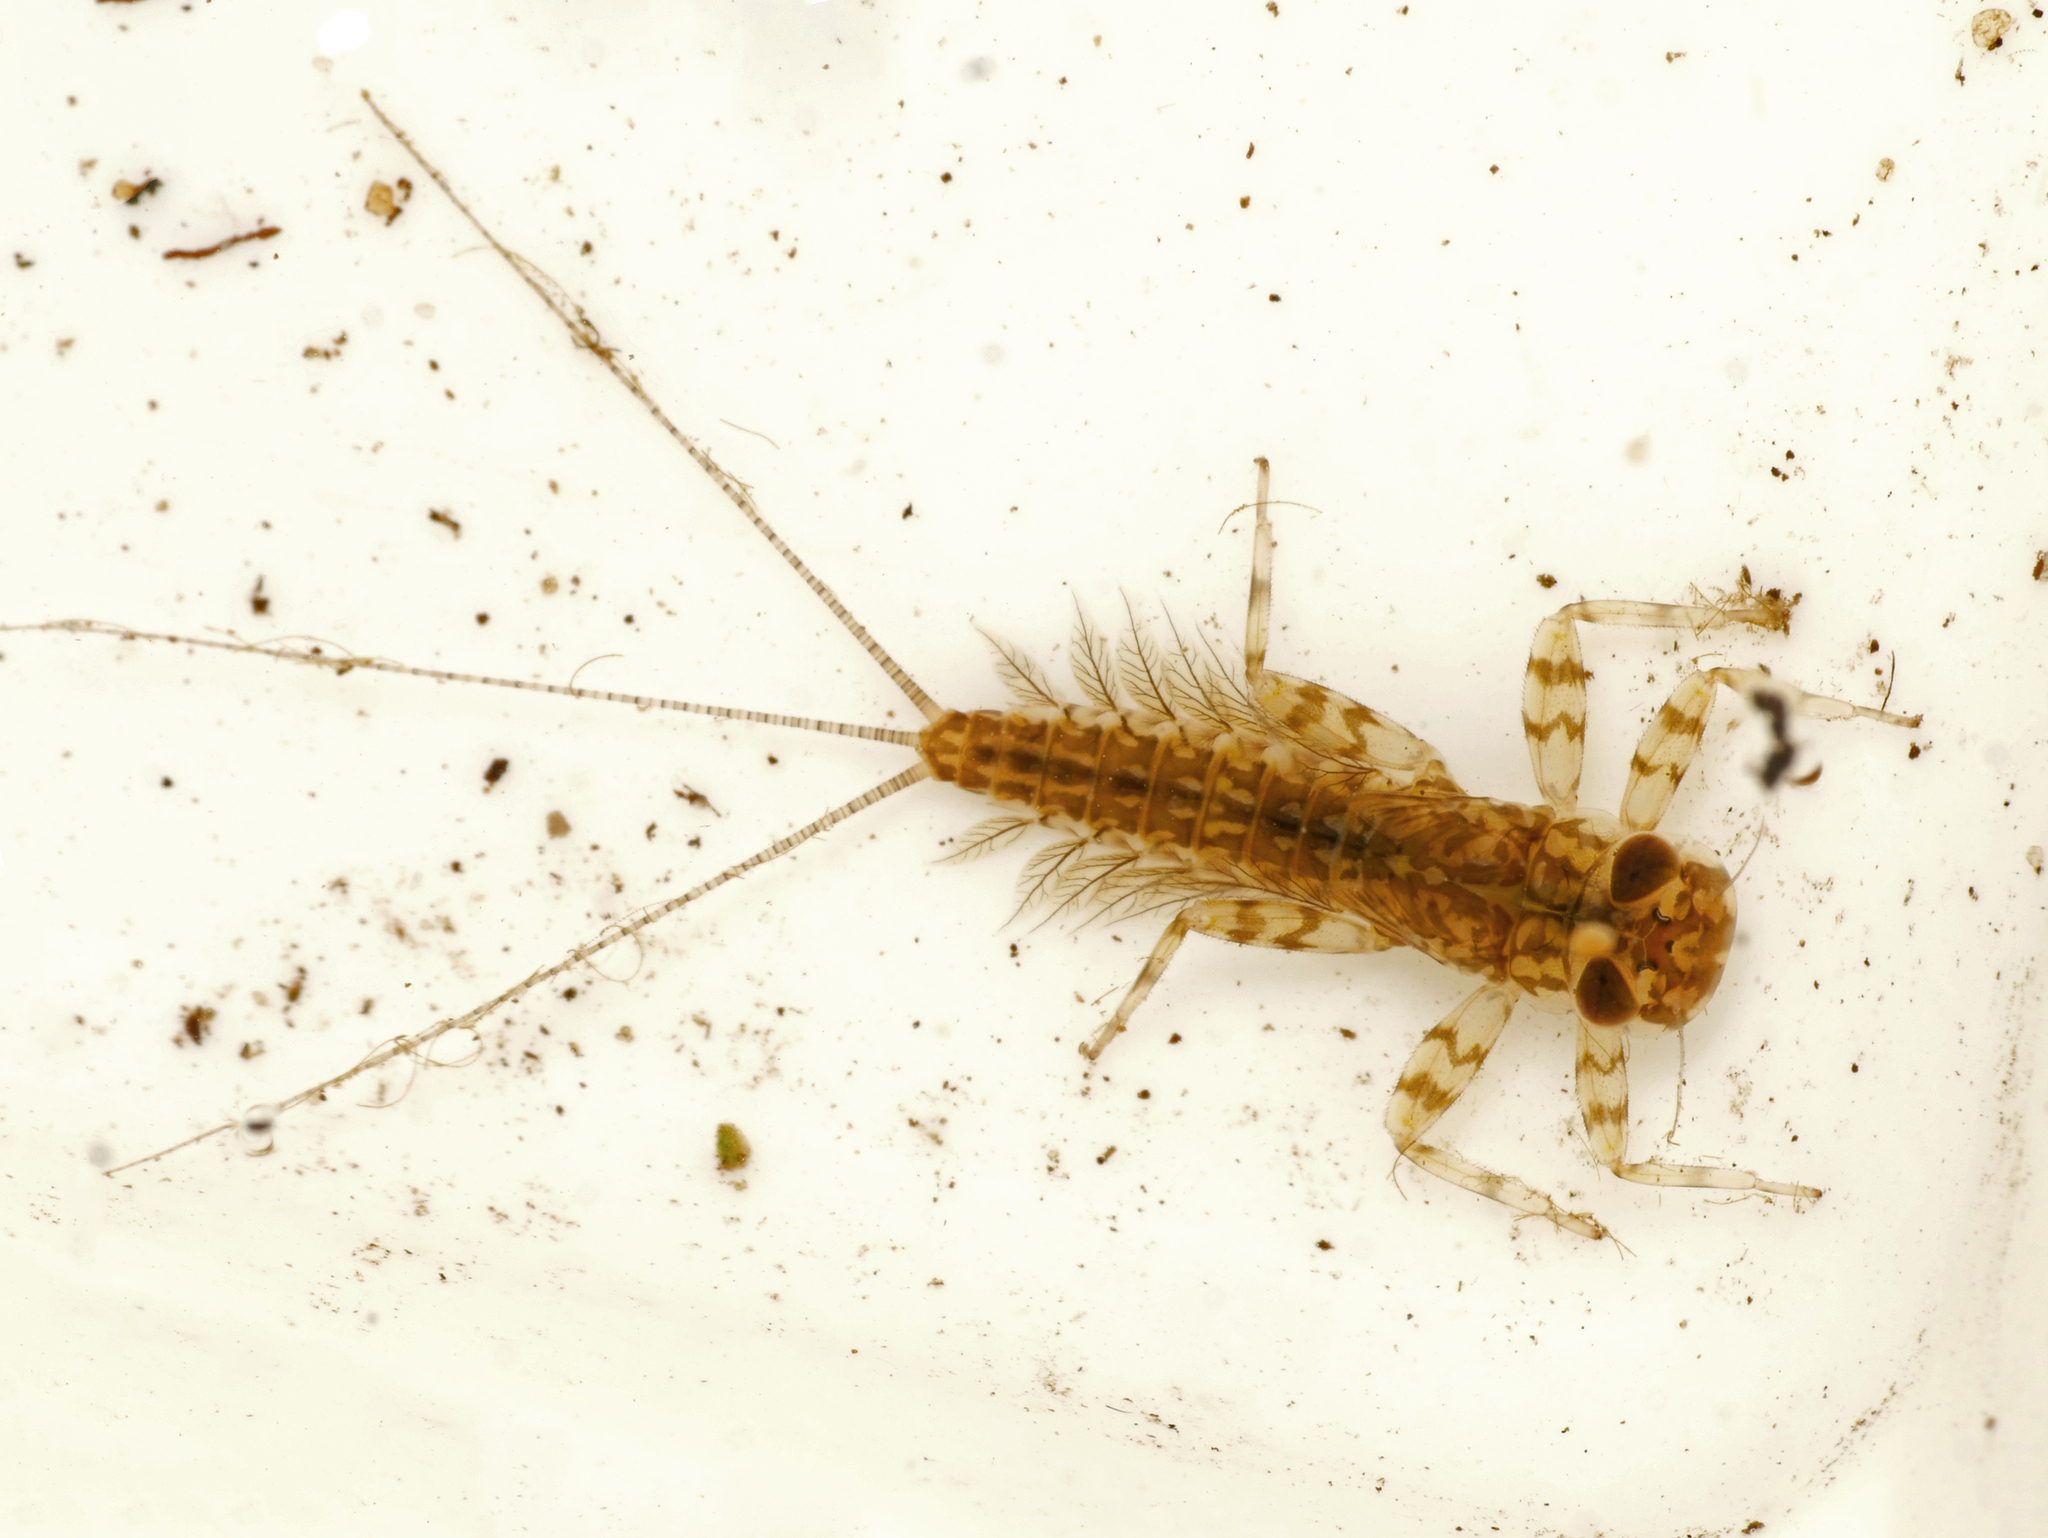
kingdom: Animalia
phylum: Arthropoda
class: Insecta
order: Ephemeroptera
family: Heptageniidae
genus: Kageronia
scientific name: Kageronia fuscogrisea
